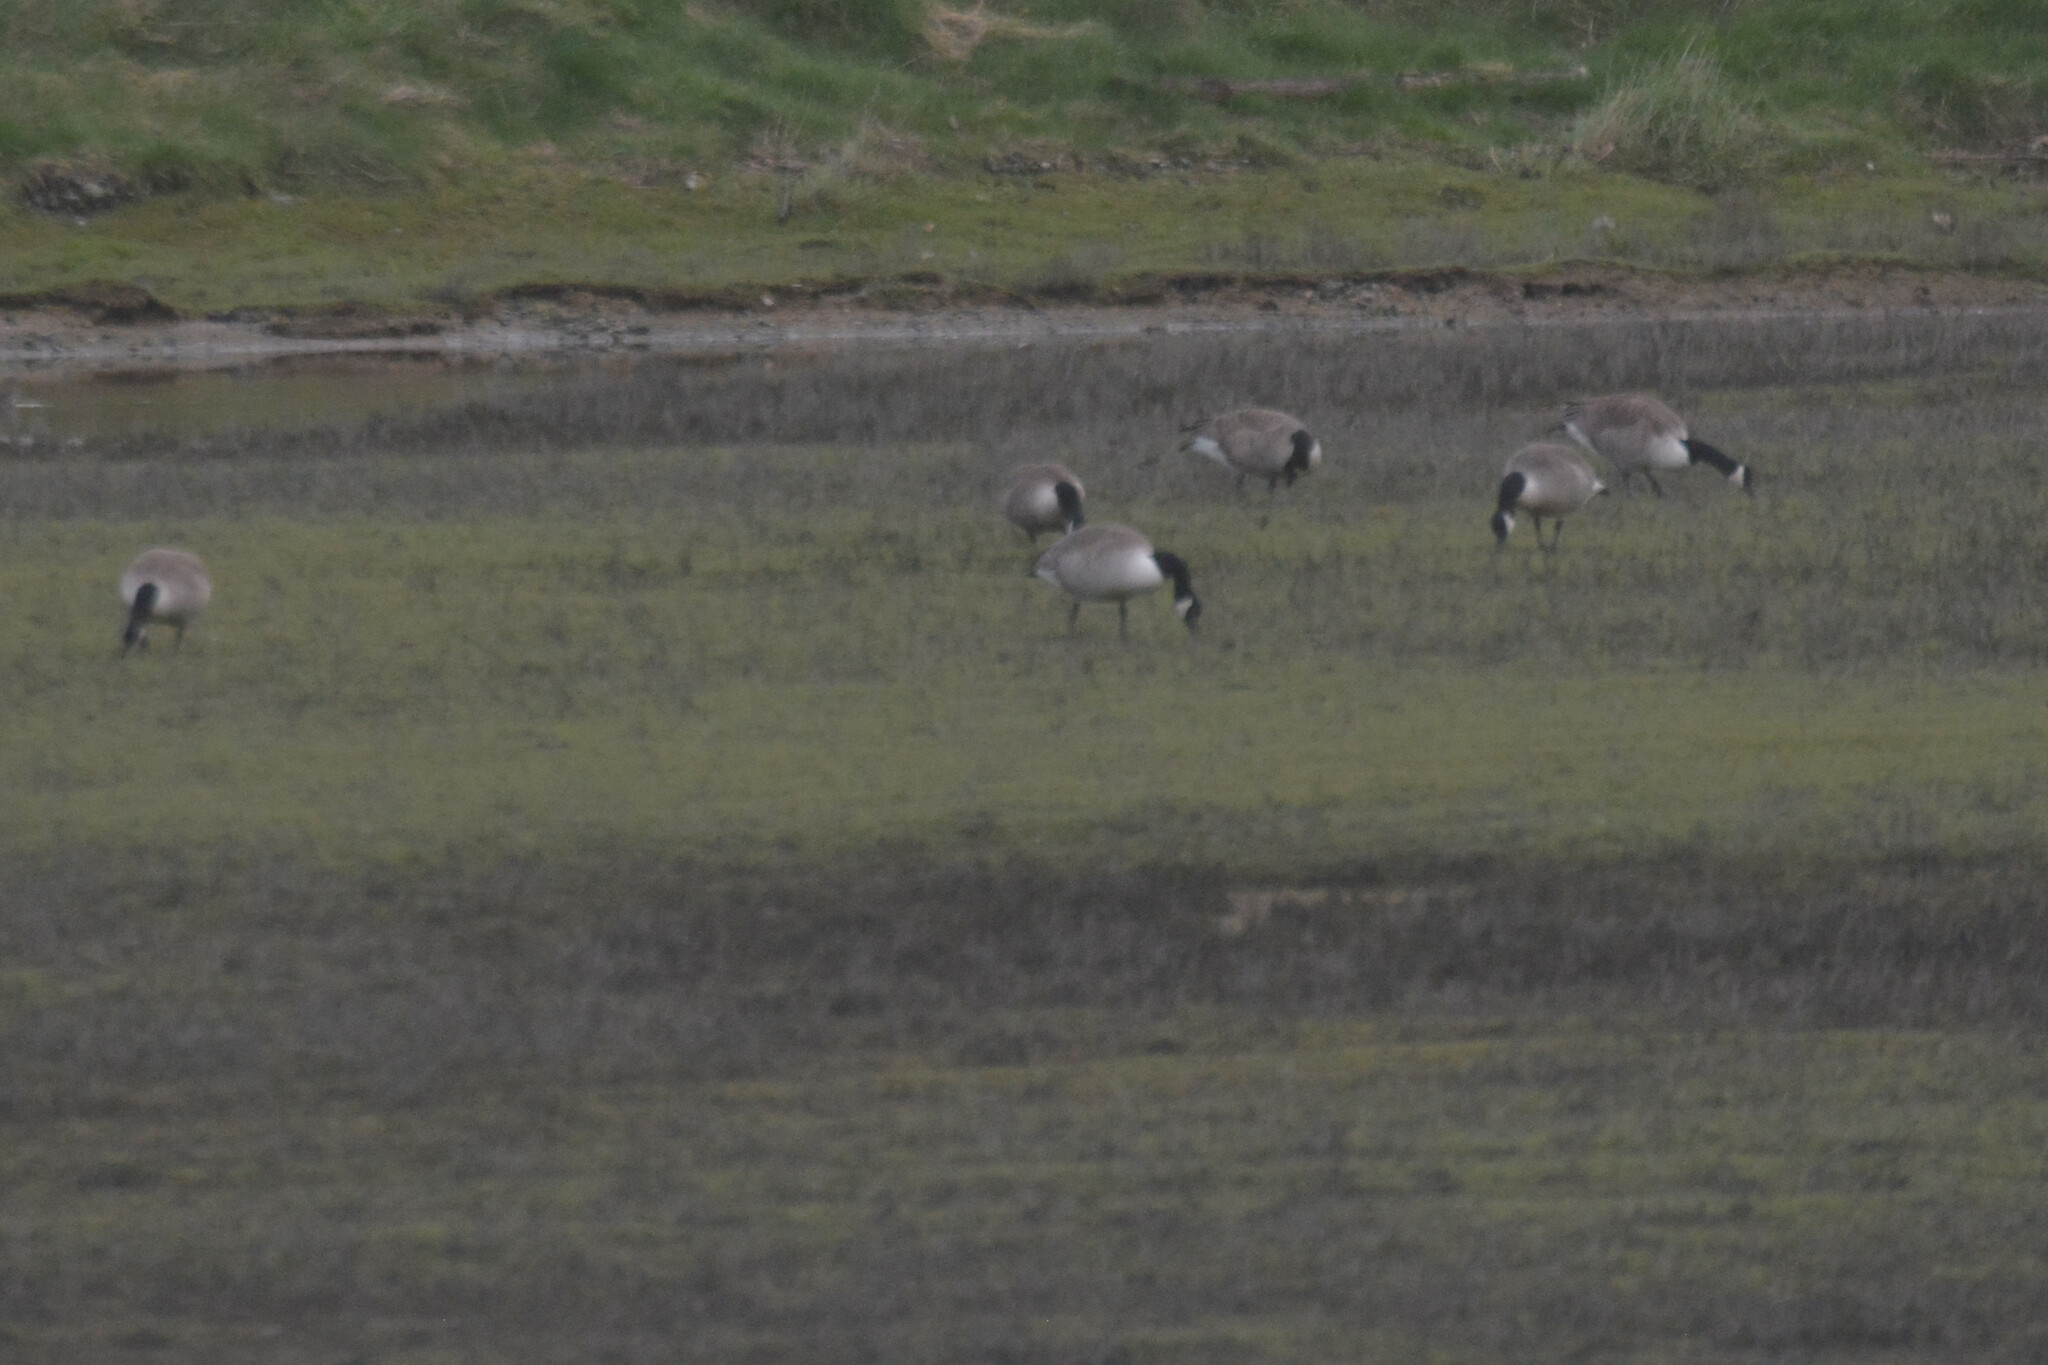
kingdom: Animalia
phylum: Chordata
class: Aves
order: Anseriformes
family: Anatidae
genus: Branta
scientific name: Branta canadensis
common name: Canada goose
